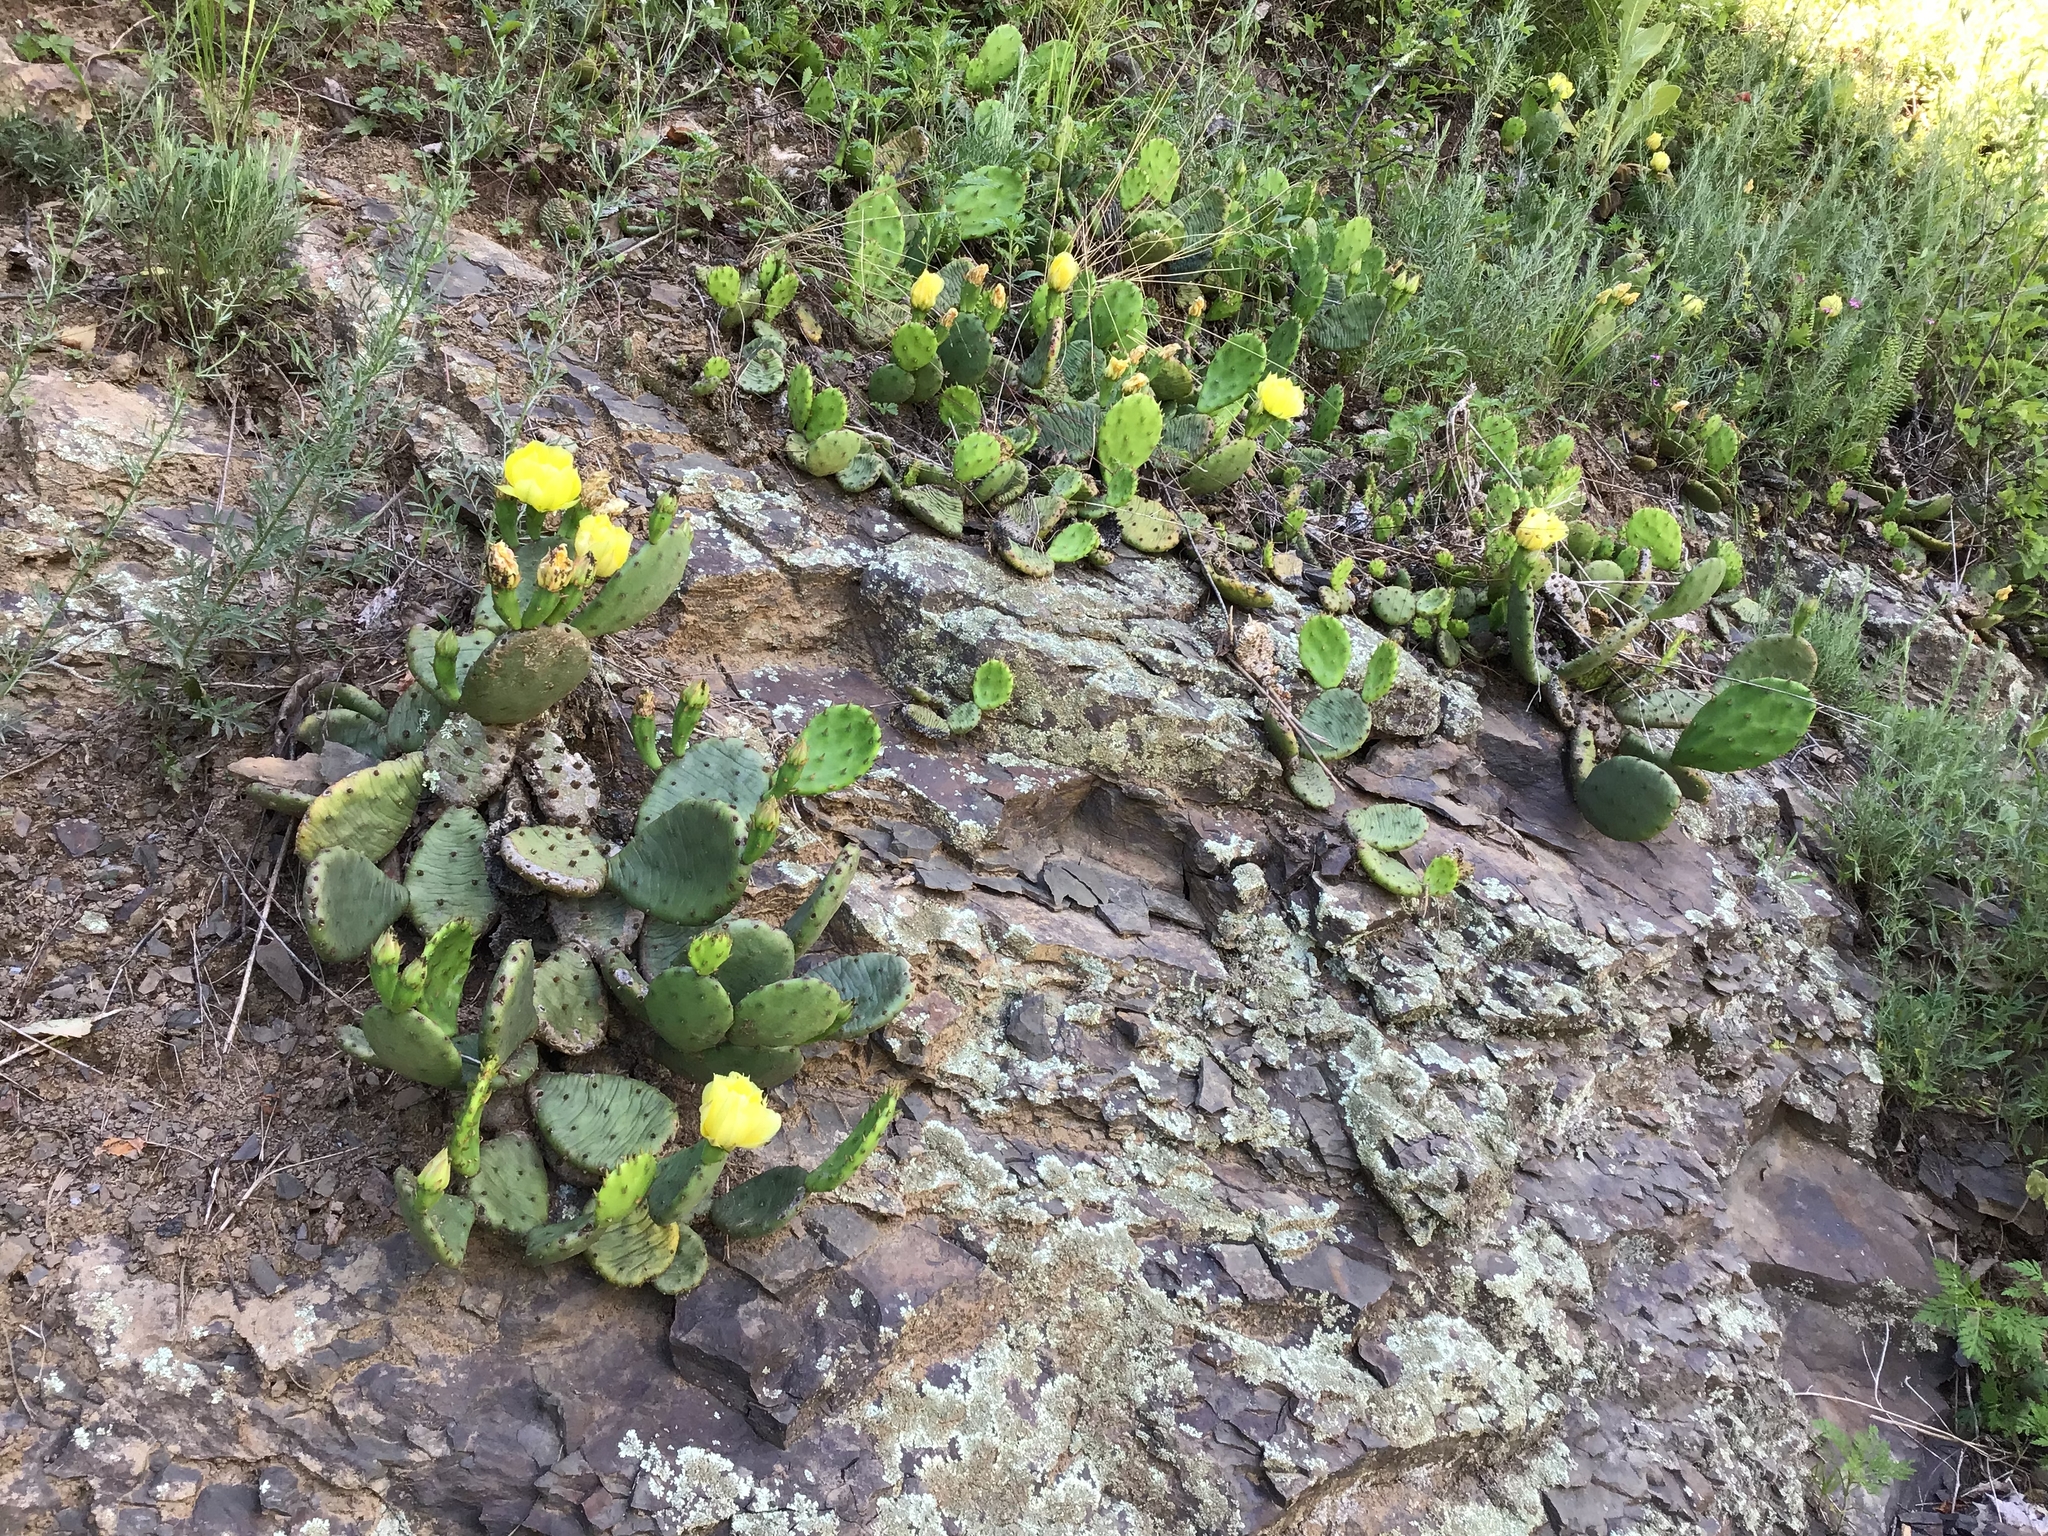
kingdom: Plantae
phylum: Tracheophyta
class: Magnoliopsida
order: Caryophyllales
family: Cactaceae
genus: Opuntia
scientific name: Opuntia humifusa
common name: Eastern prickly-pear
